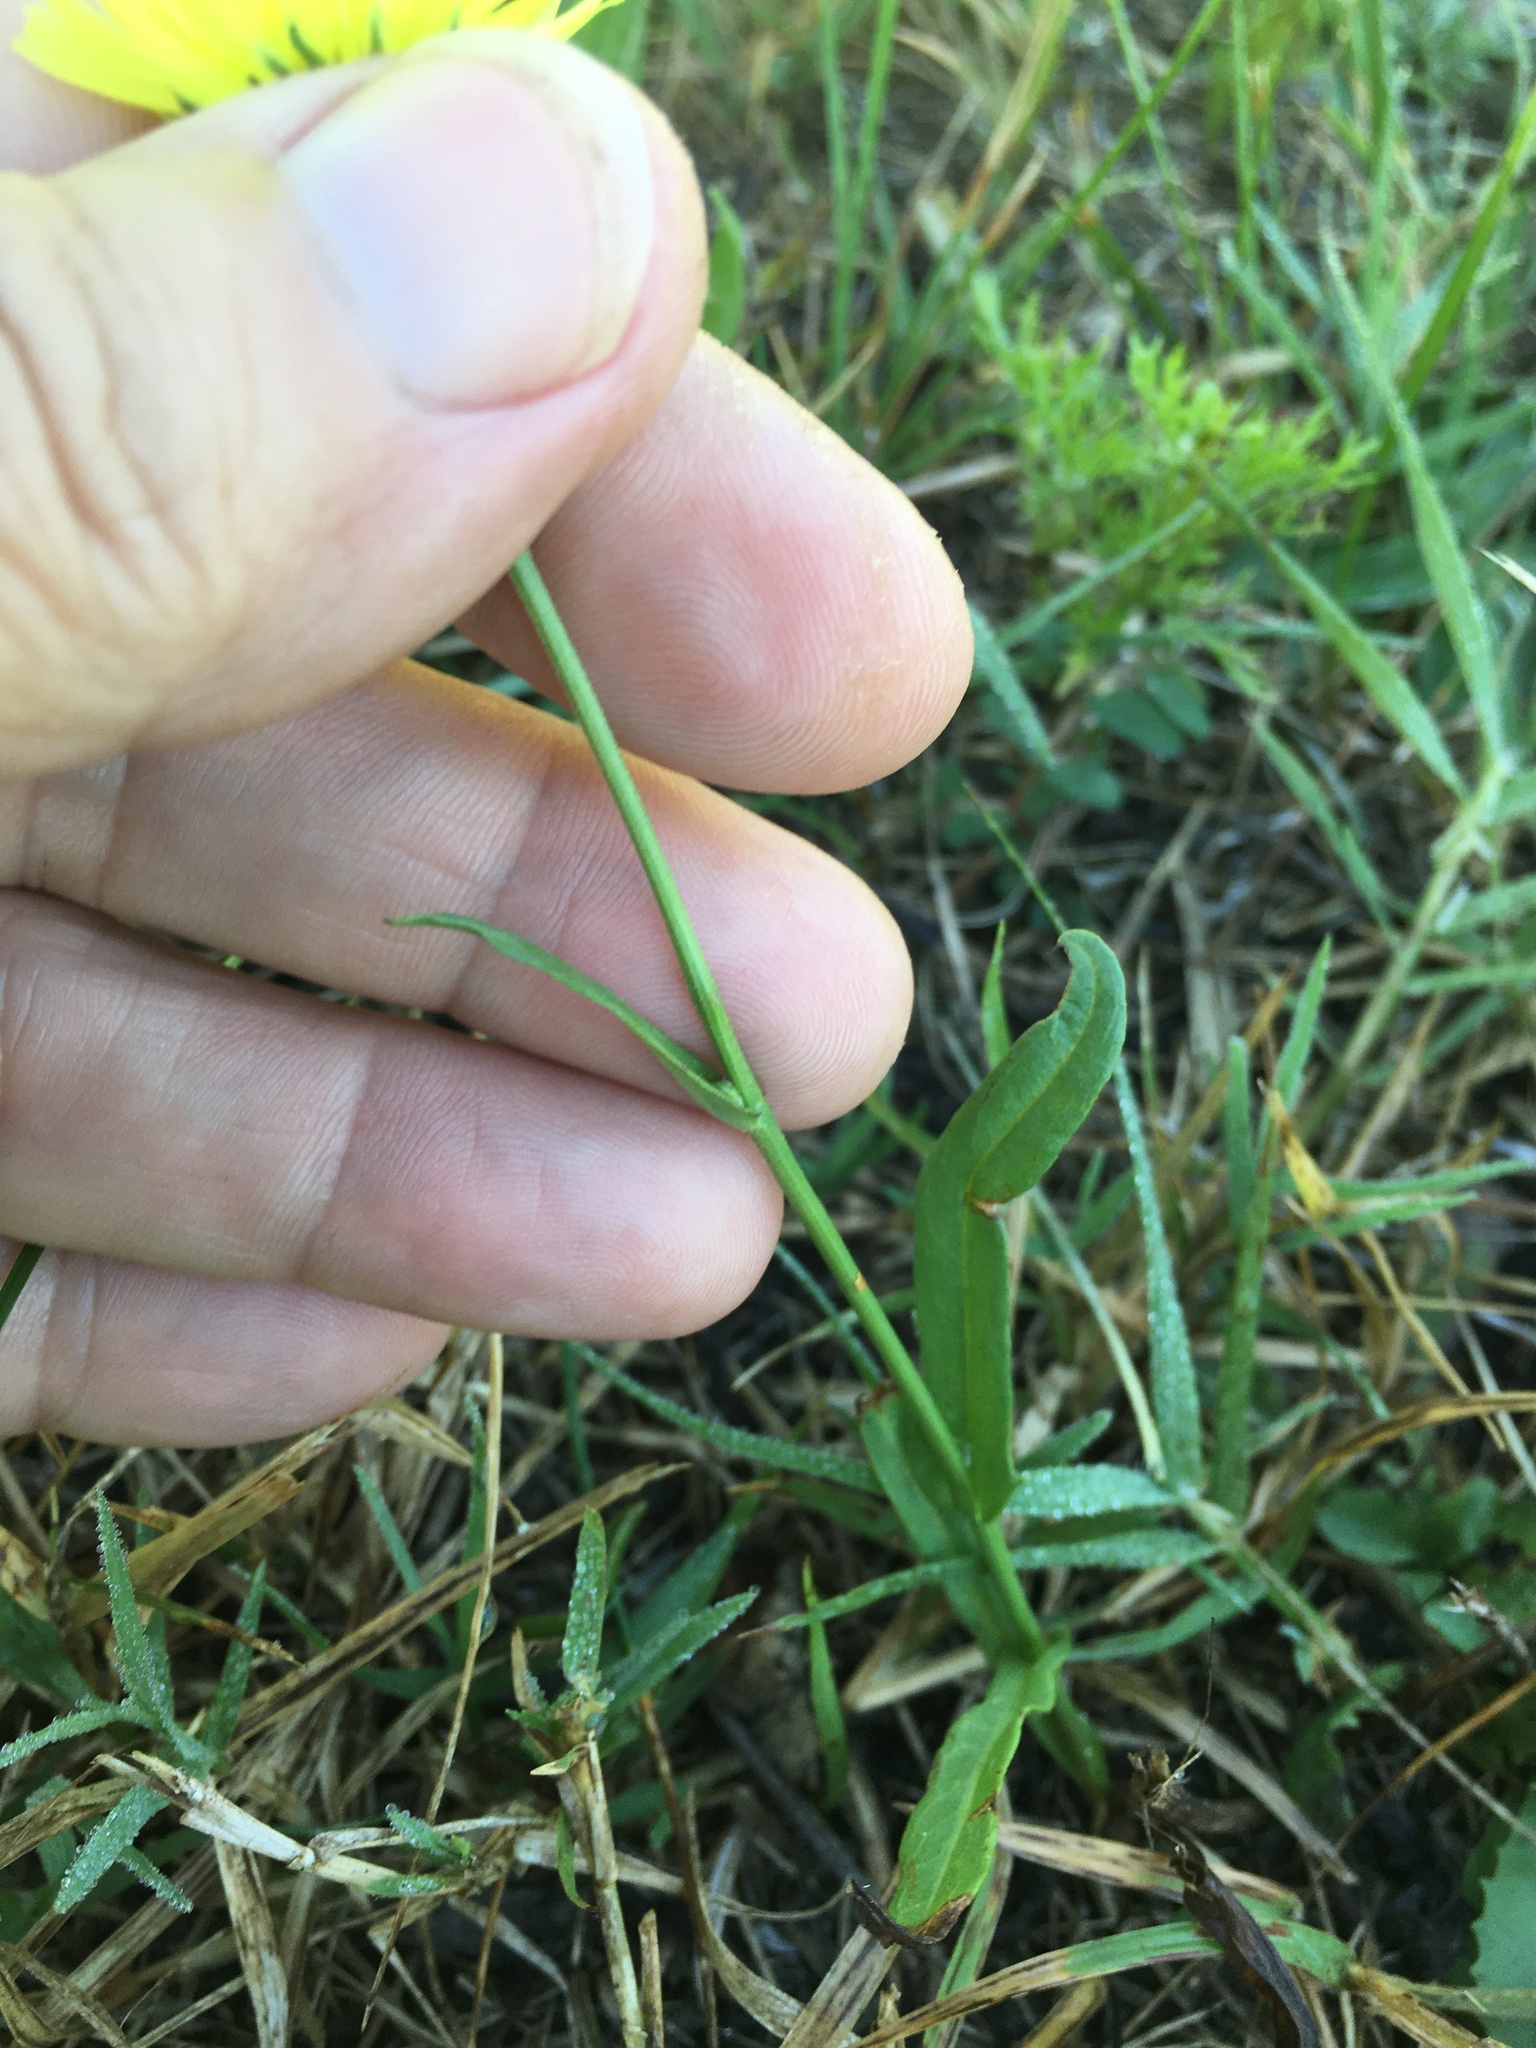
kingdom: Plantae
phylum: Tracheophyta
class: Magnoliopsida
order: Asterales
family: Asteraceae
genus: Pyrrhopappus
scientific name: Pyrrhopappus carolinianus
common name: Carolina desert-chicory
